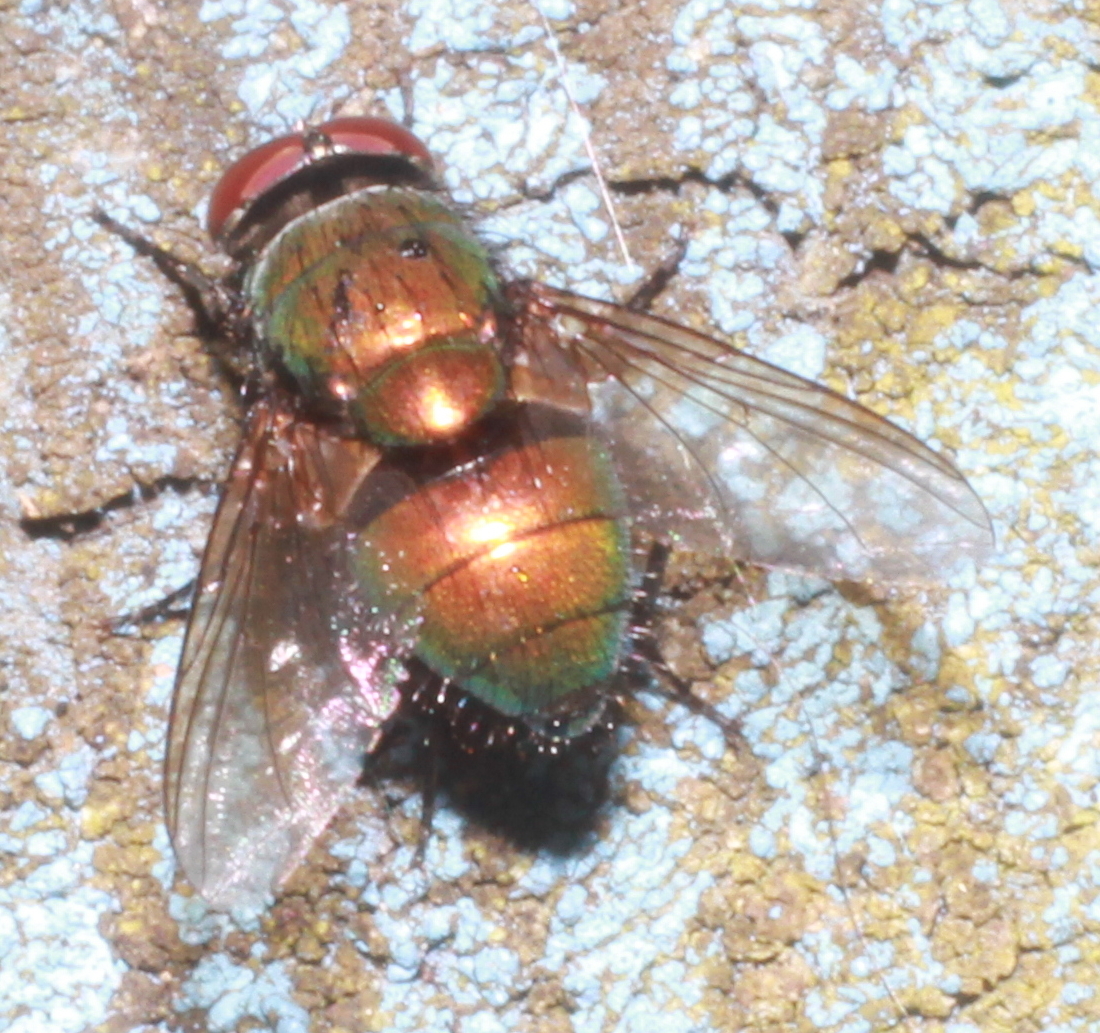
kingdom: Animalia
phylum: Arthropoda
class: Insecta
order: Diptera
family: Calliphoridae
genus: Lucilia
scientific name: Lucilia
